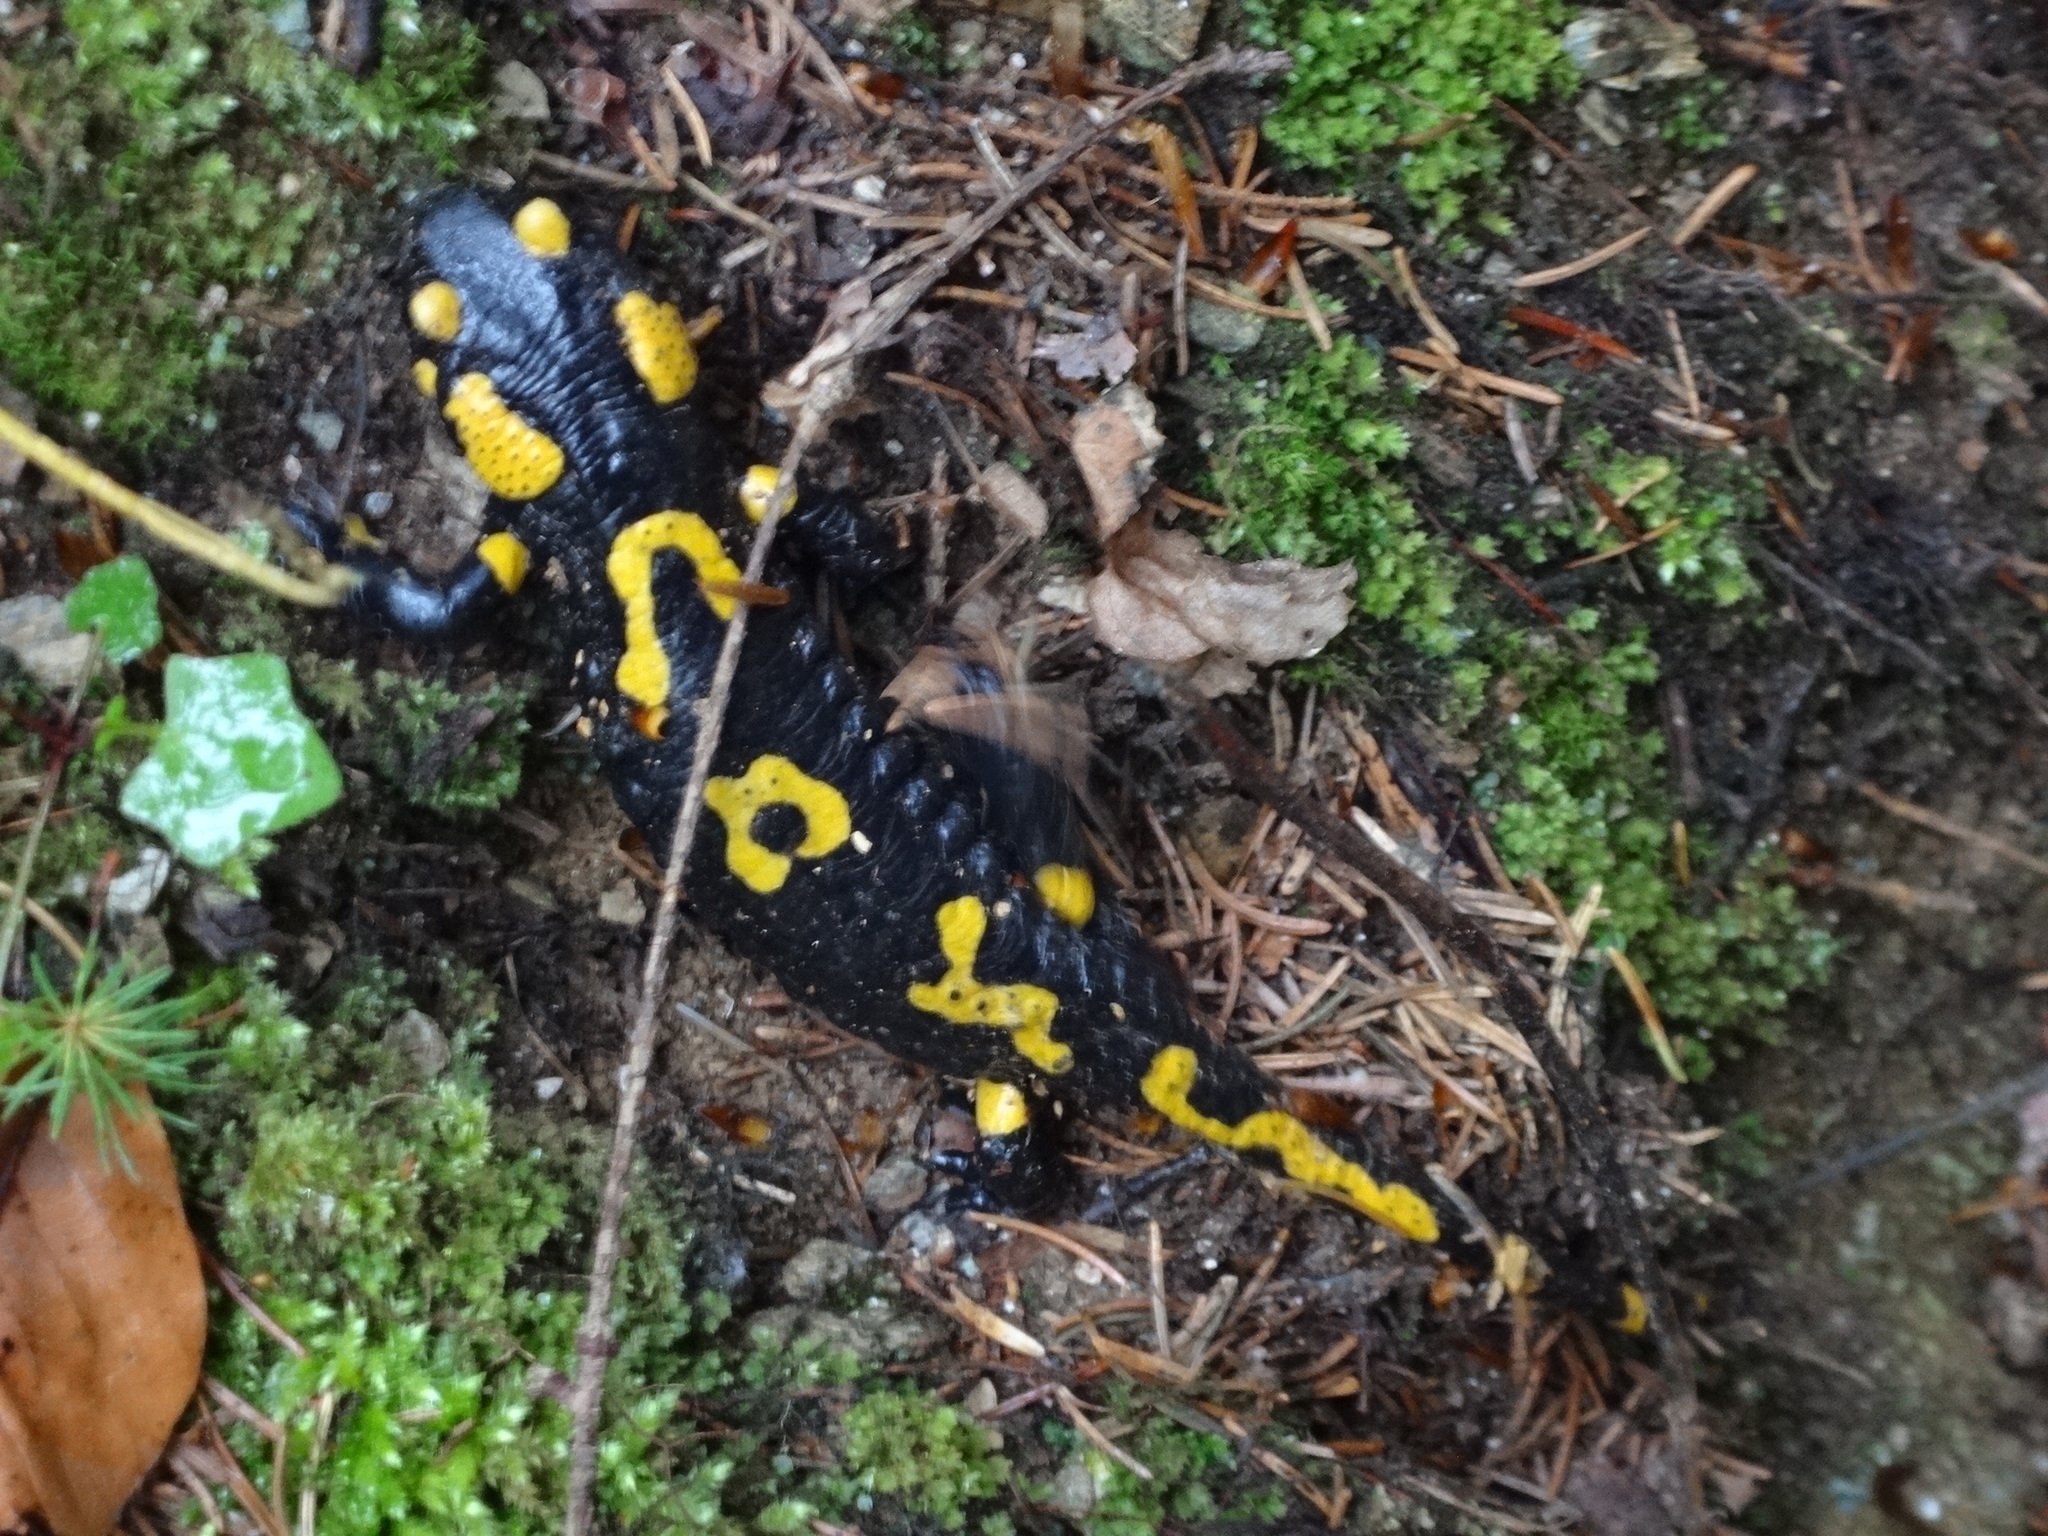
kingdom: Animalia
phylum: Chordata
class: Amphibia
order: Caudata
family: Salamandridae
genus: Salamandra
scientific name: Salamandra salamandra
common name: Fire salamander
